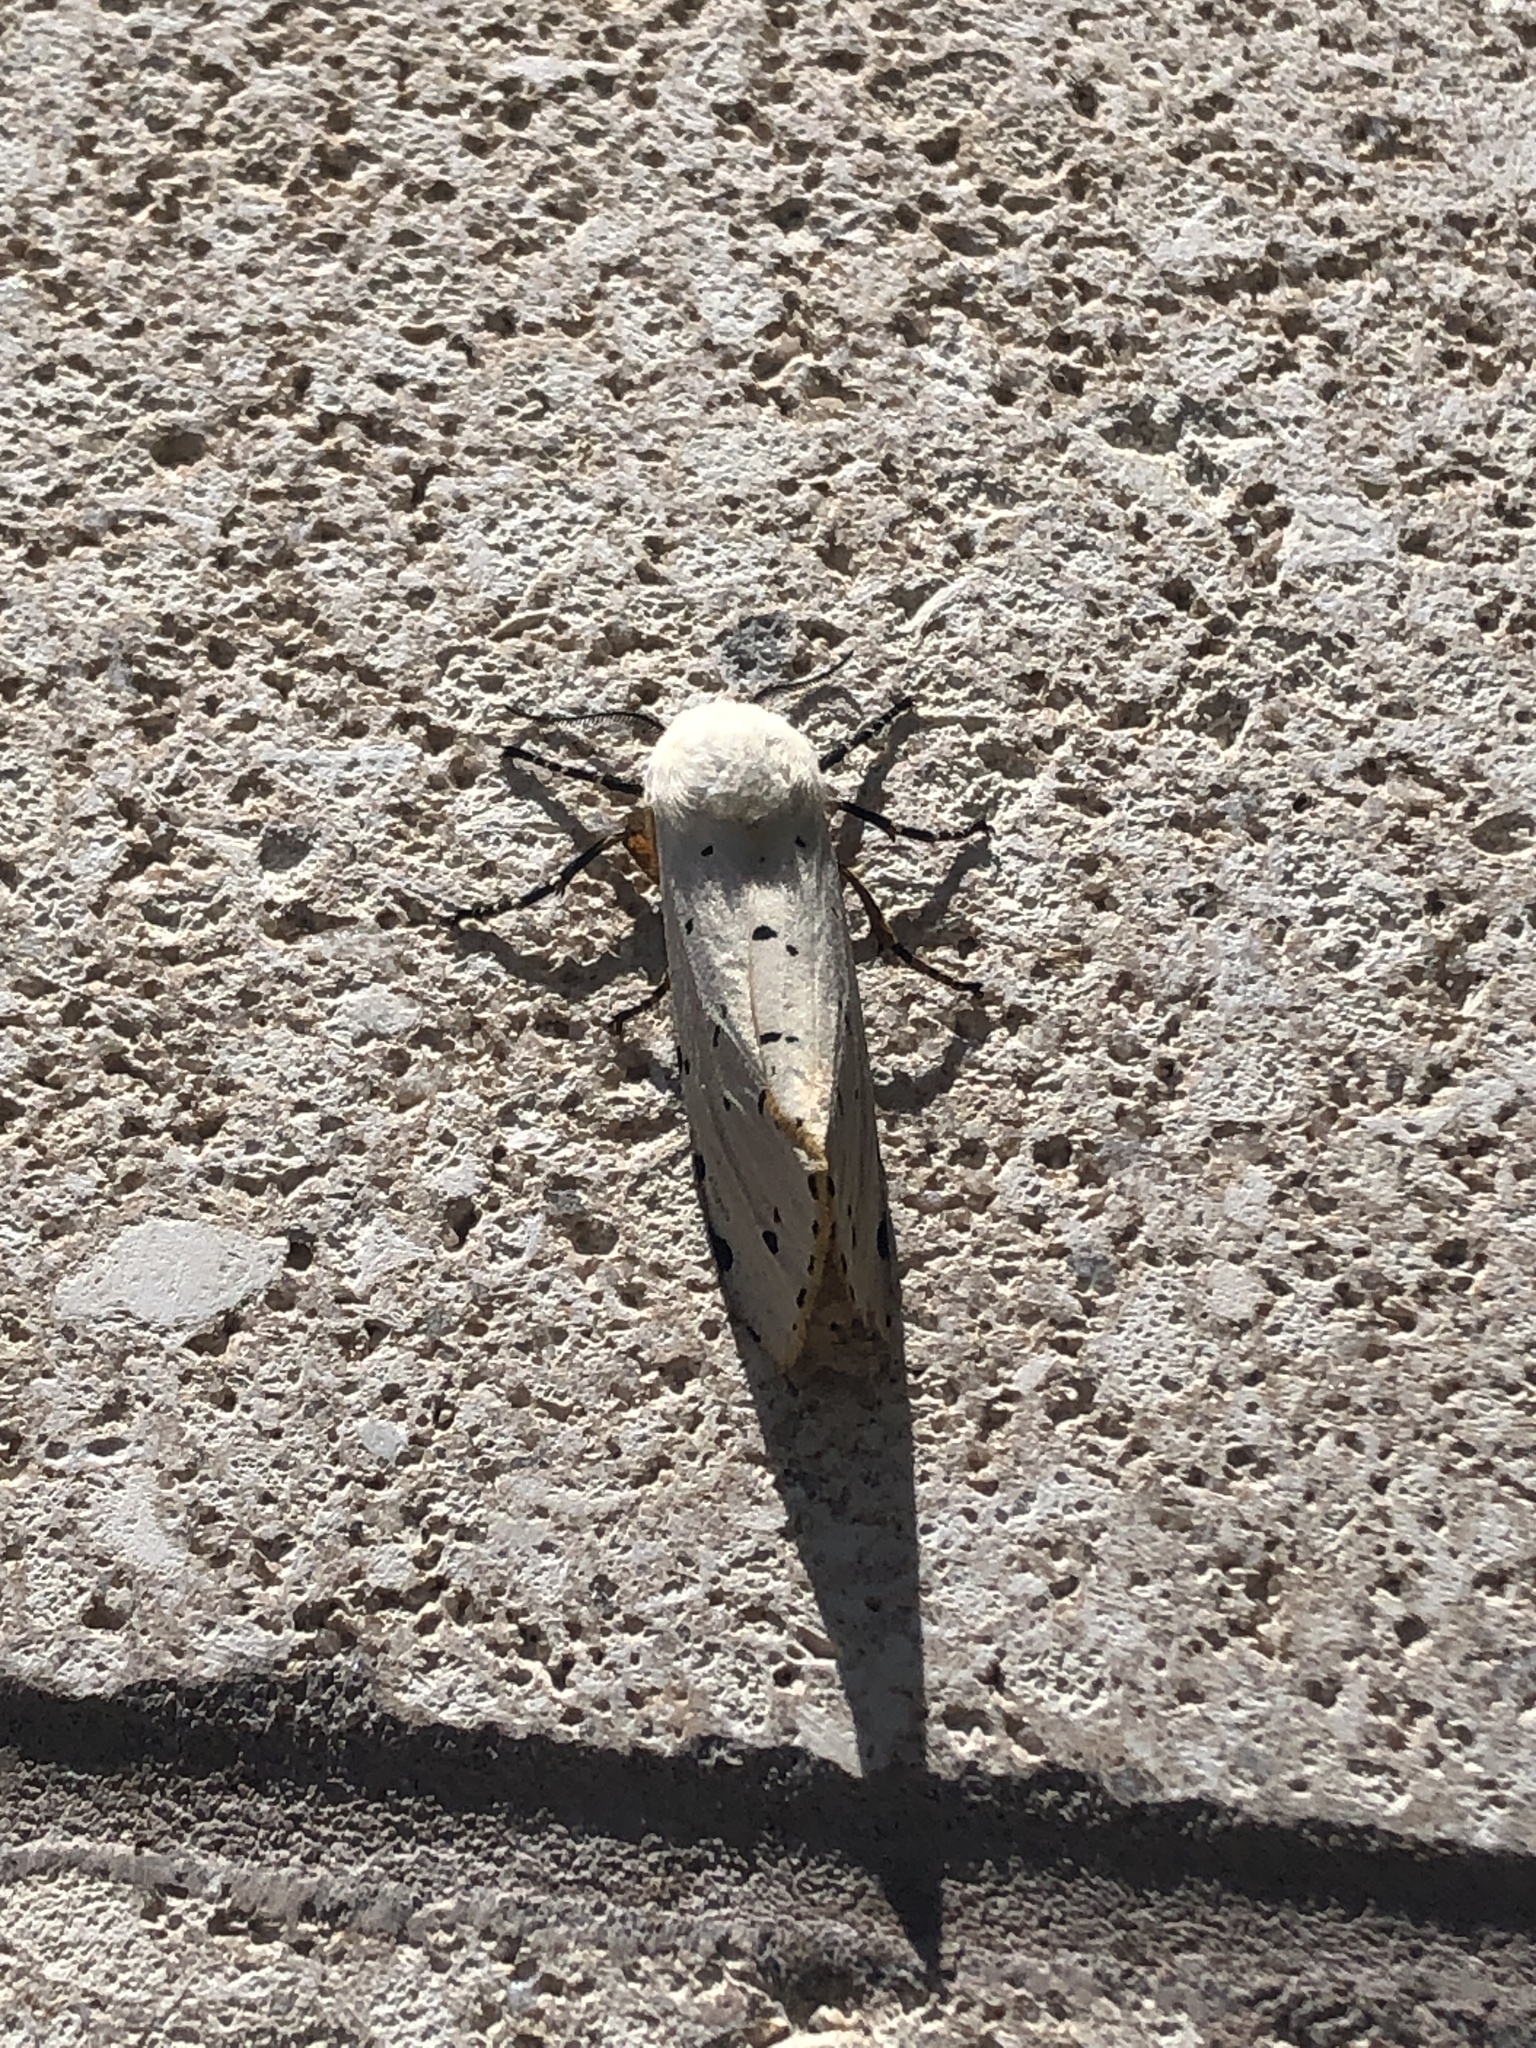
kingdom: Animalia
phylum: Arthropoda
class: Insecta
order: Lepidoptera
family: Erebidae
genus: Estigmene
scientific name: Estigmene acrea
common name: Salt marsh moth
